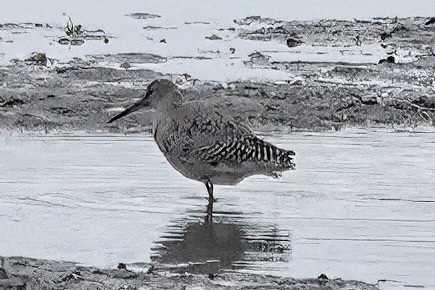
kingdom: Animalia
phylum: Chordata
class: Aves
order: Charadriiformes
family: Scolopacidae
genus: Tringa
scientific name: Tringa semipalmata
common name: Willet
